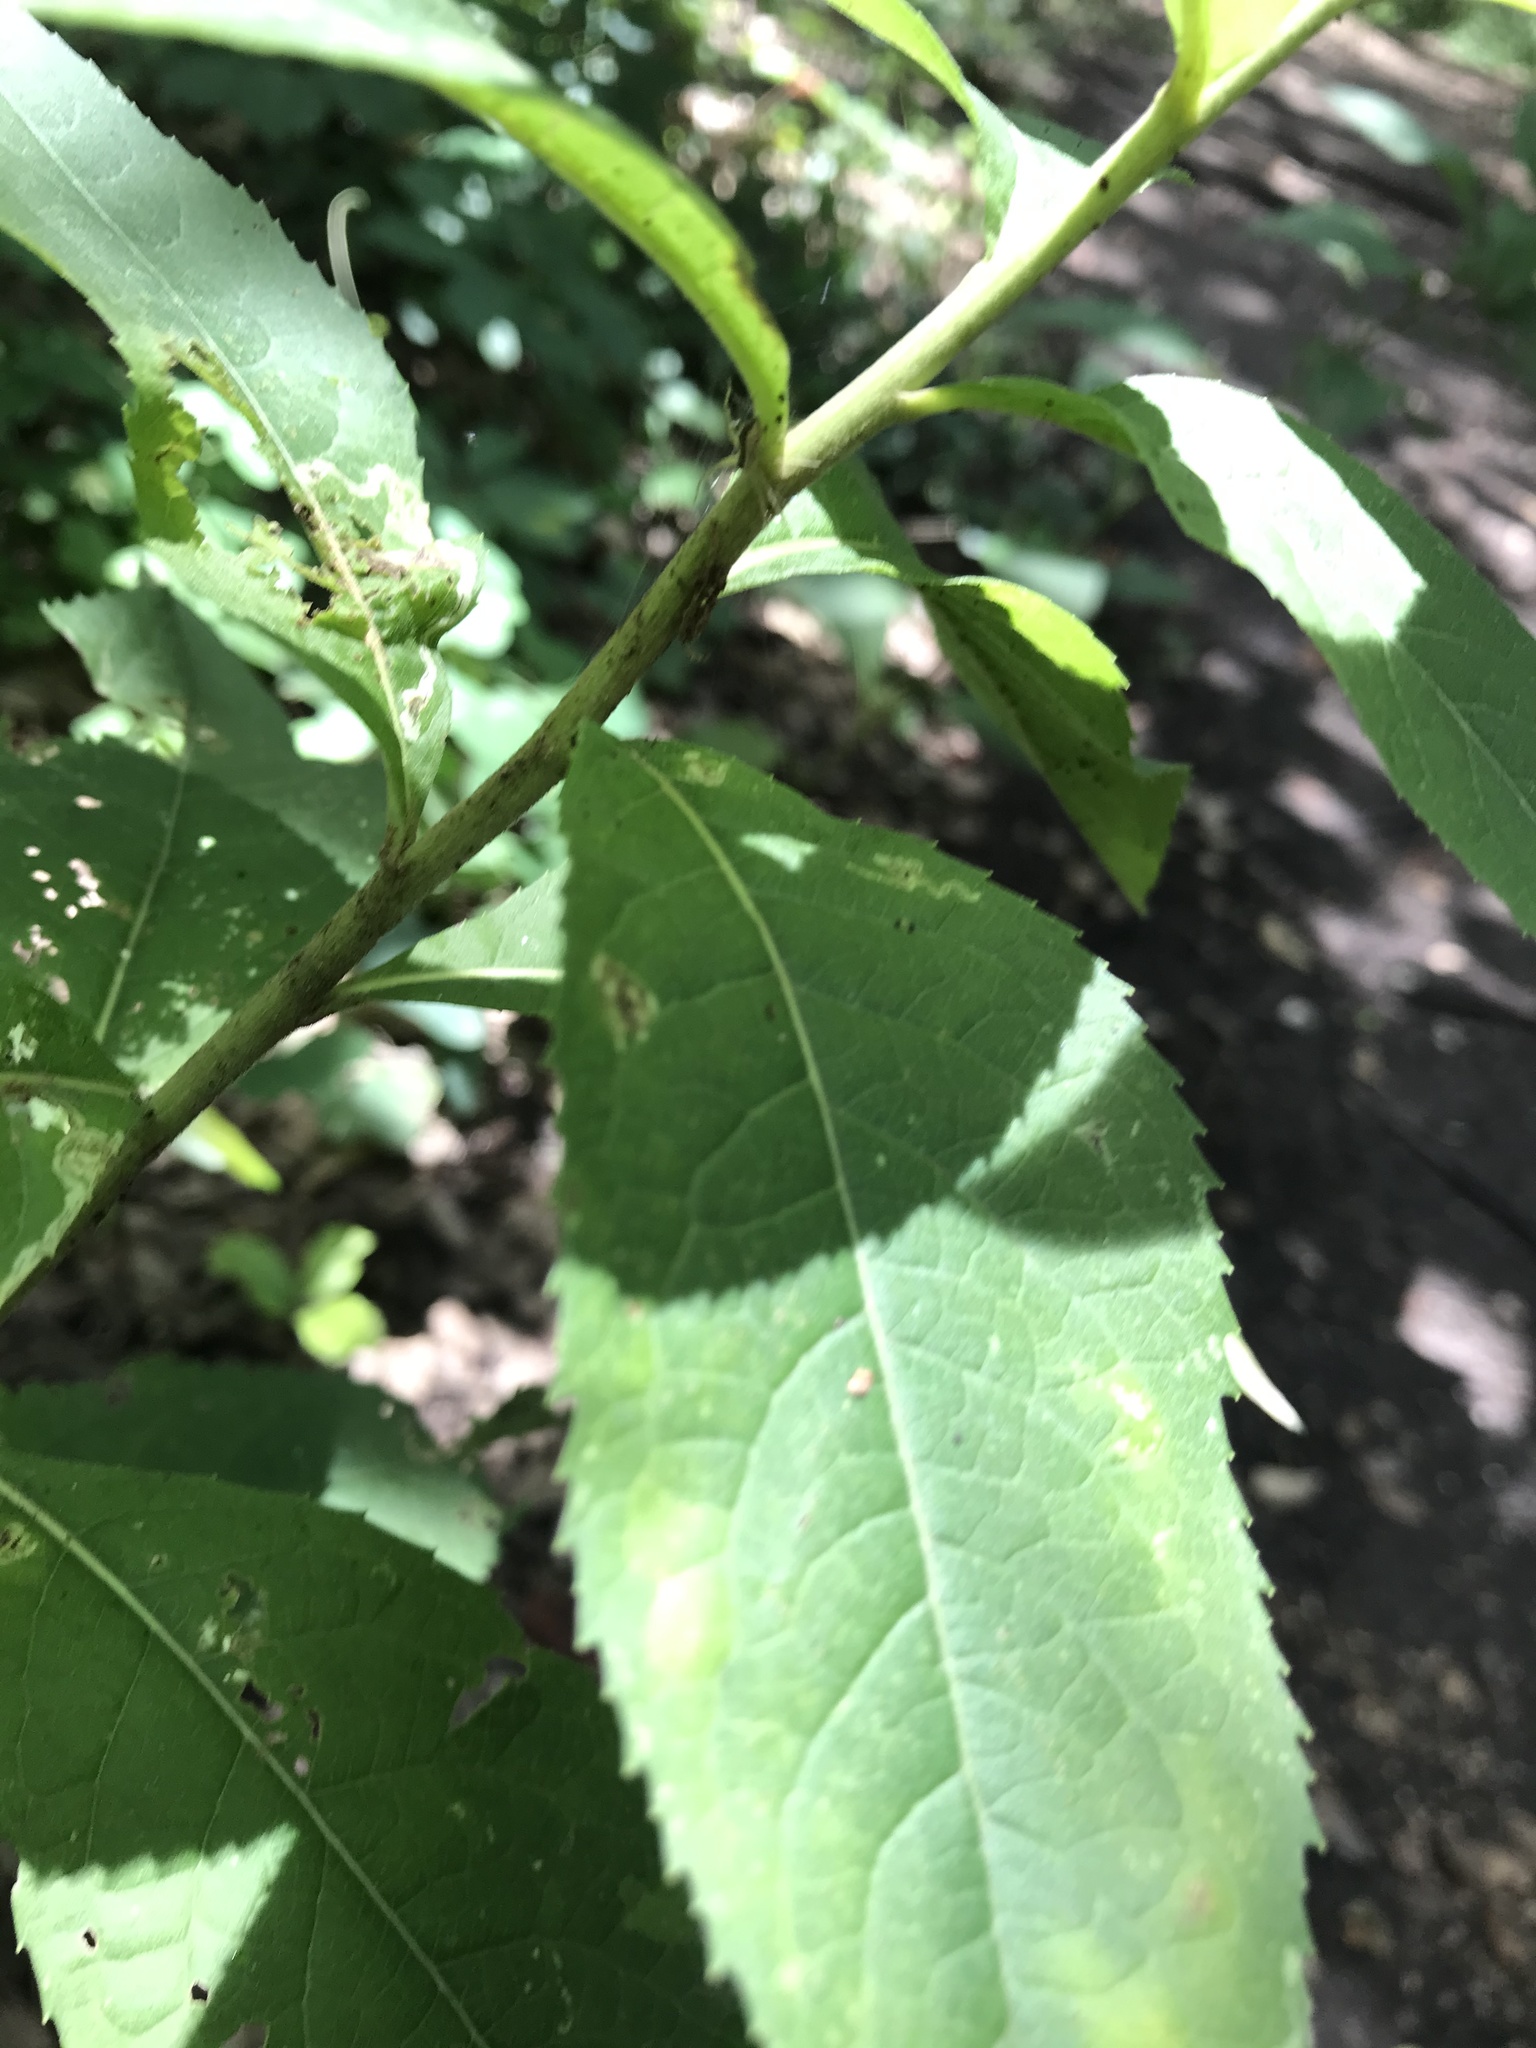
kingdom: Animalia
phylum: Arthropoda
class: Arachnida
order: Araneae
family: Pisauridae
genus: Pisaurina
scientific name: Pisaurina mira
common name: American nursery web spider
